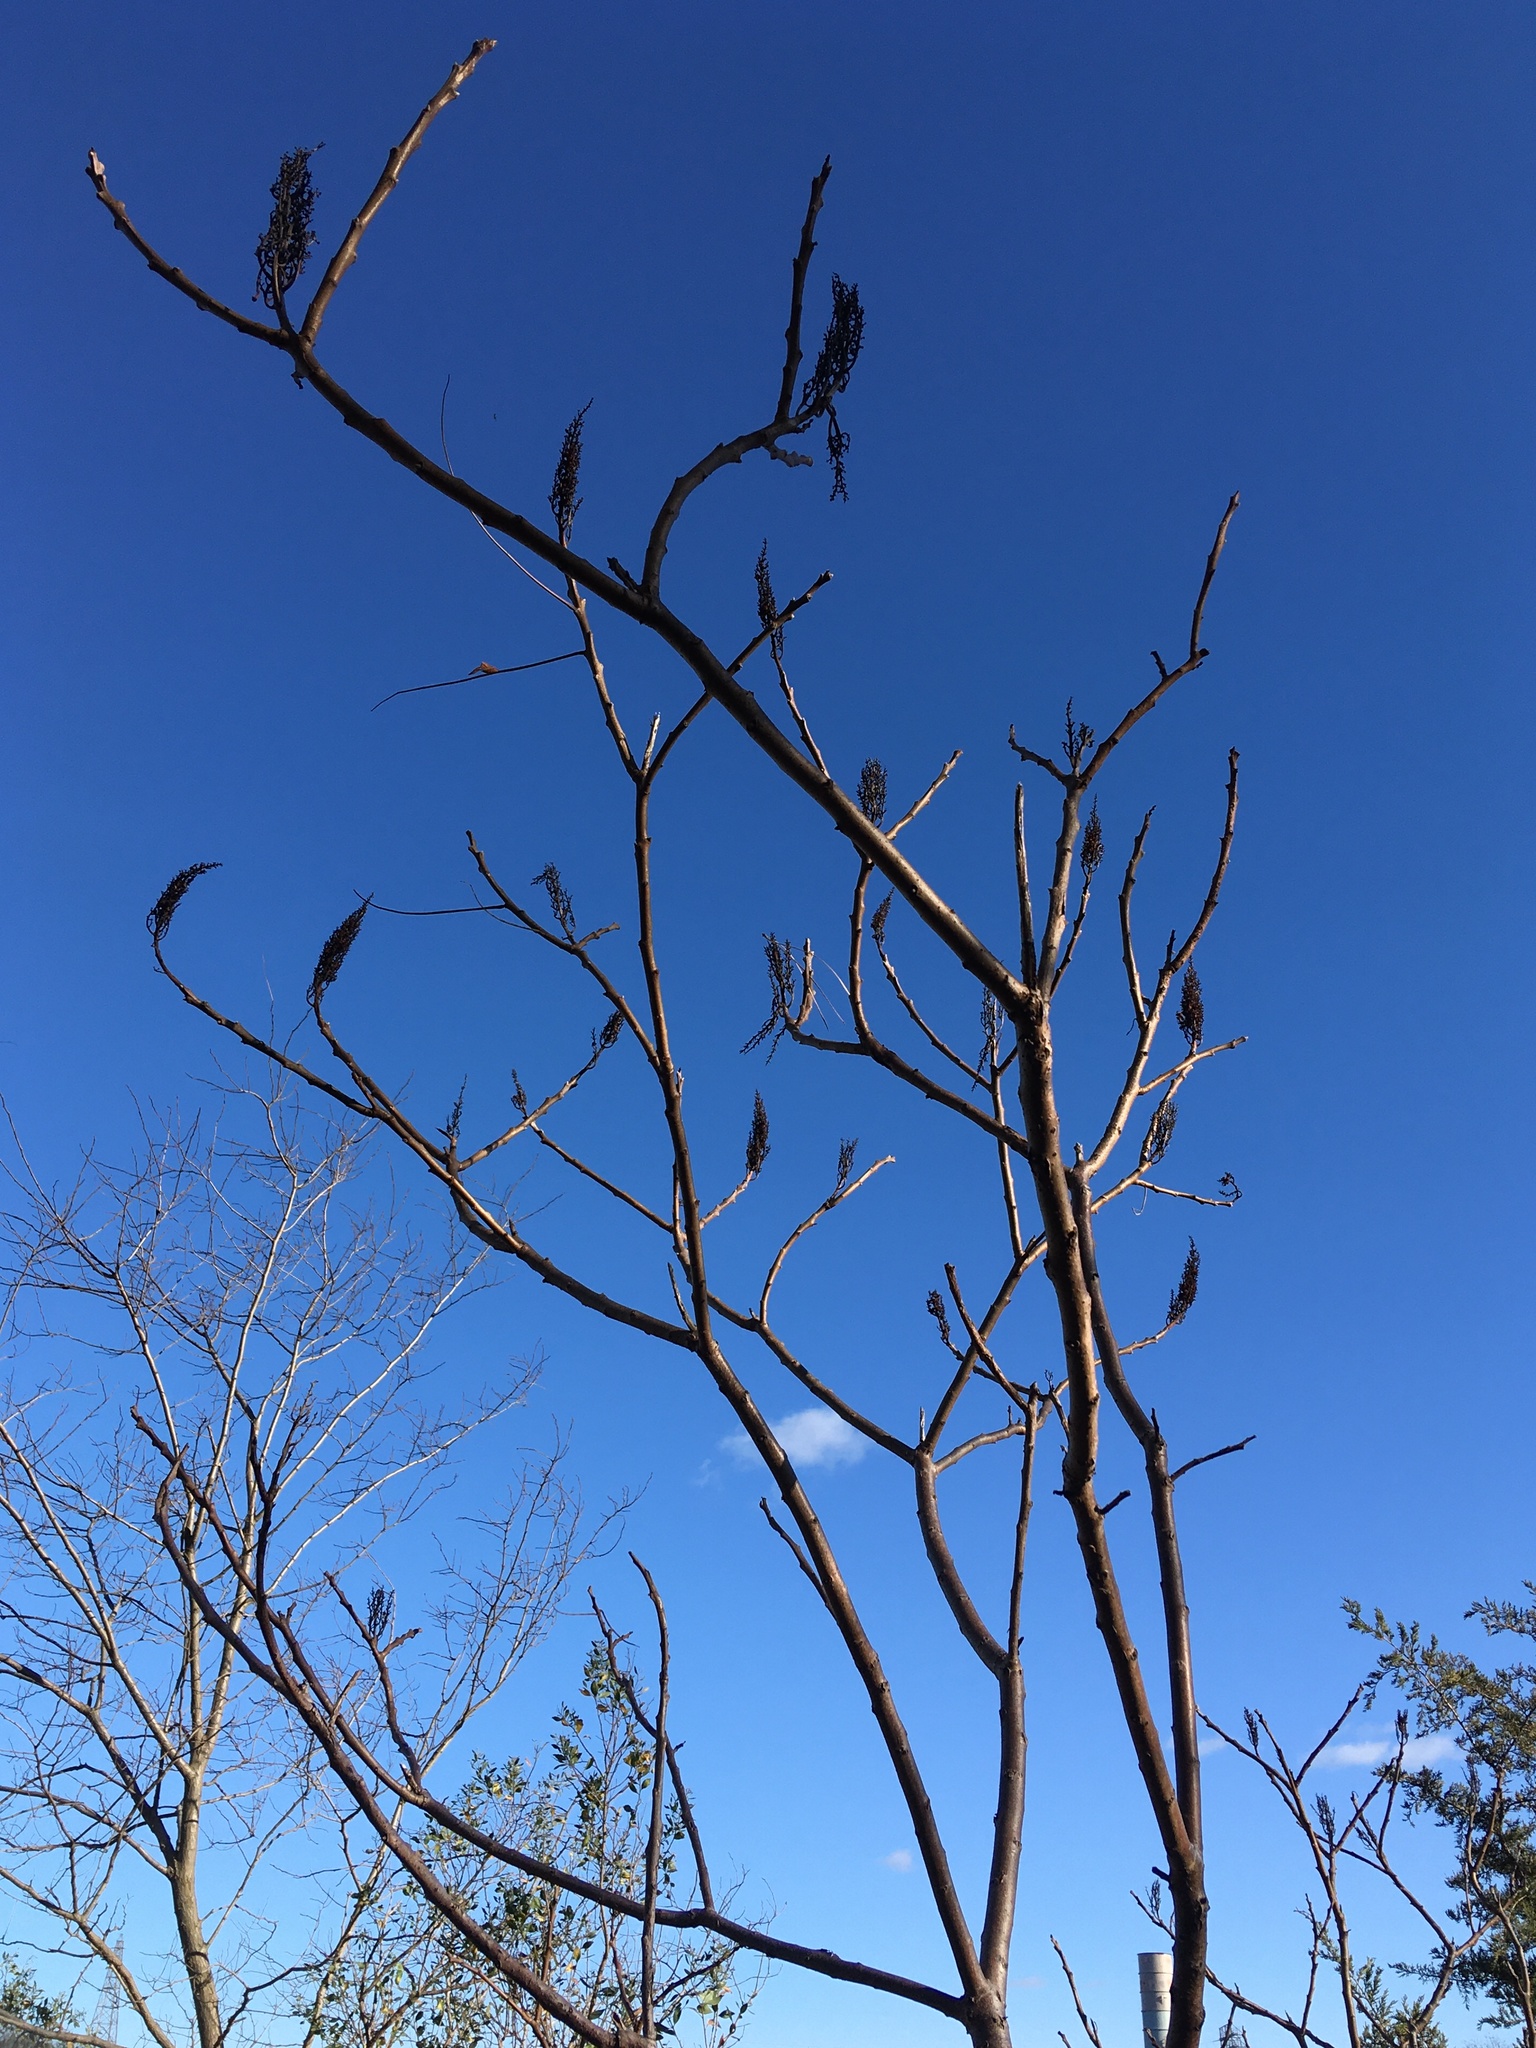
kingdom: Plantae
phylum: Tracheophyta
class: Magnoliopsida
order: Sapindales
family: Anacardiaceae
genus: Rhus
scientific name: Rhus glabra
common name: Scarlet sumac
